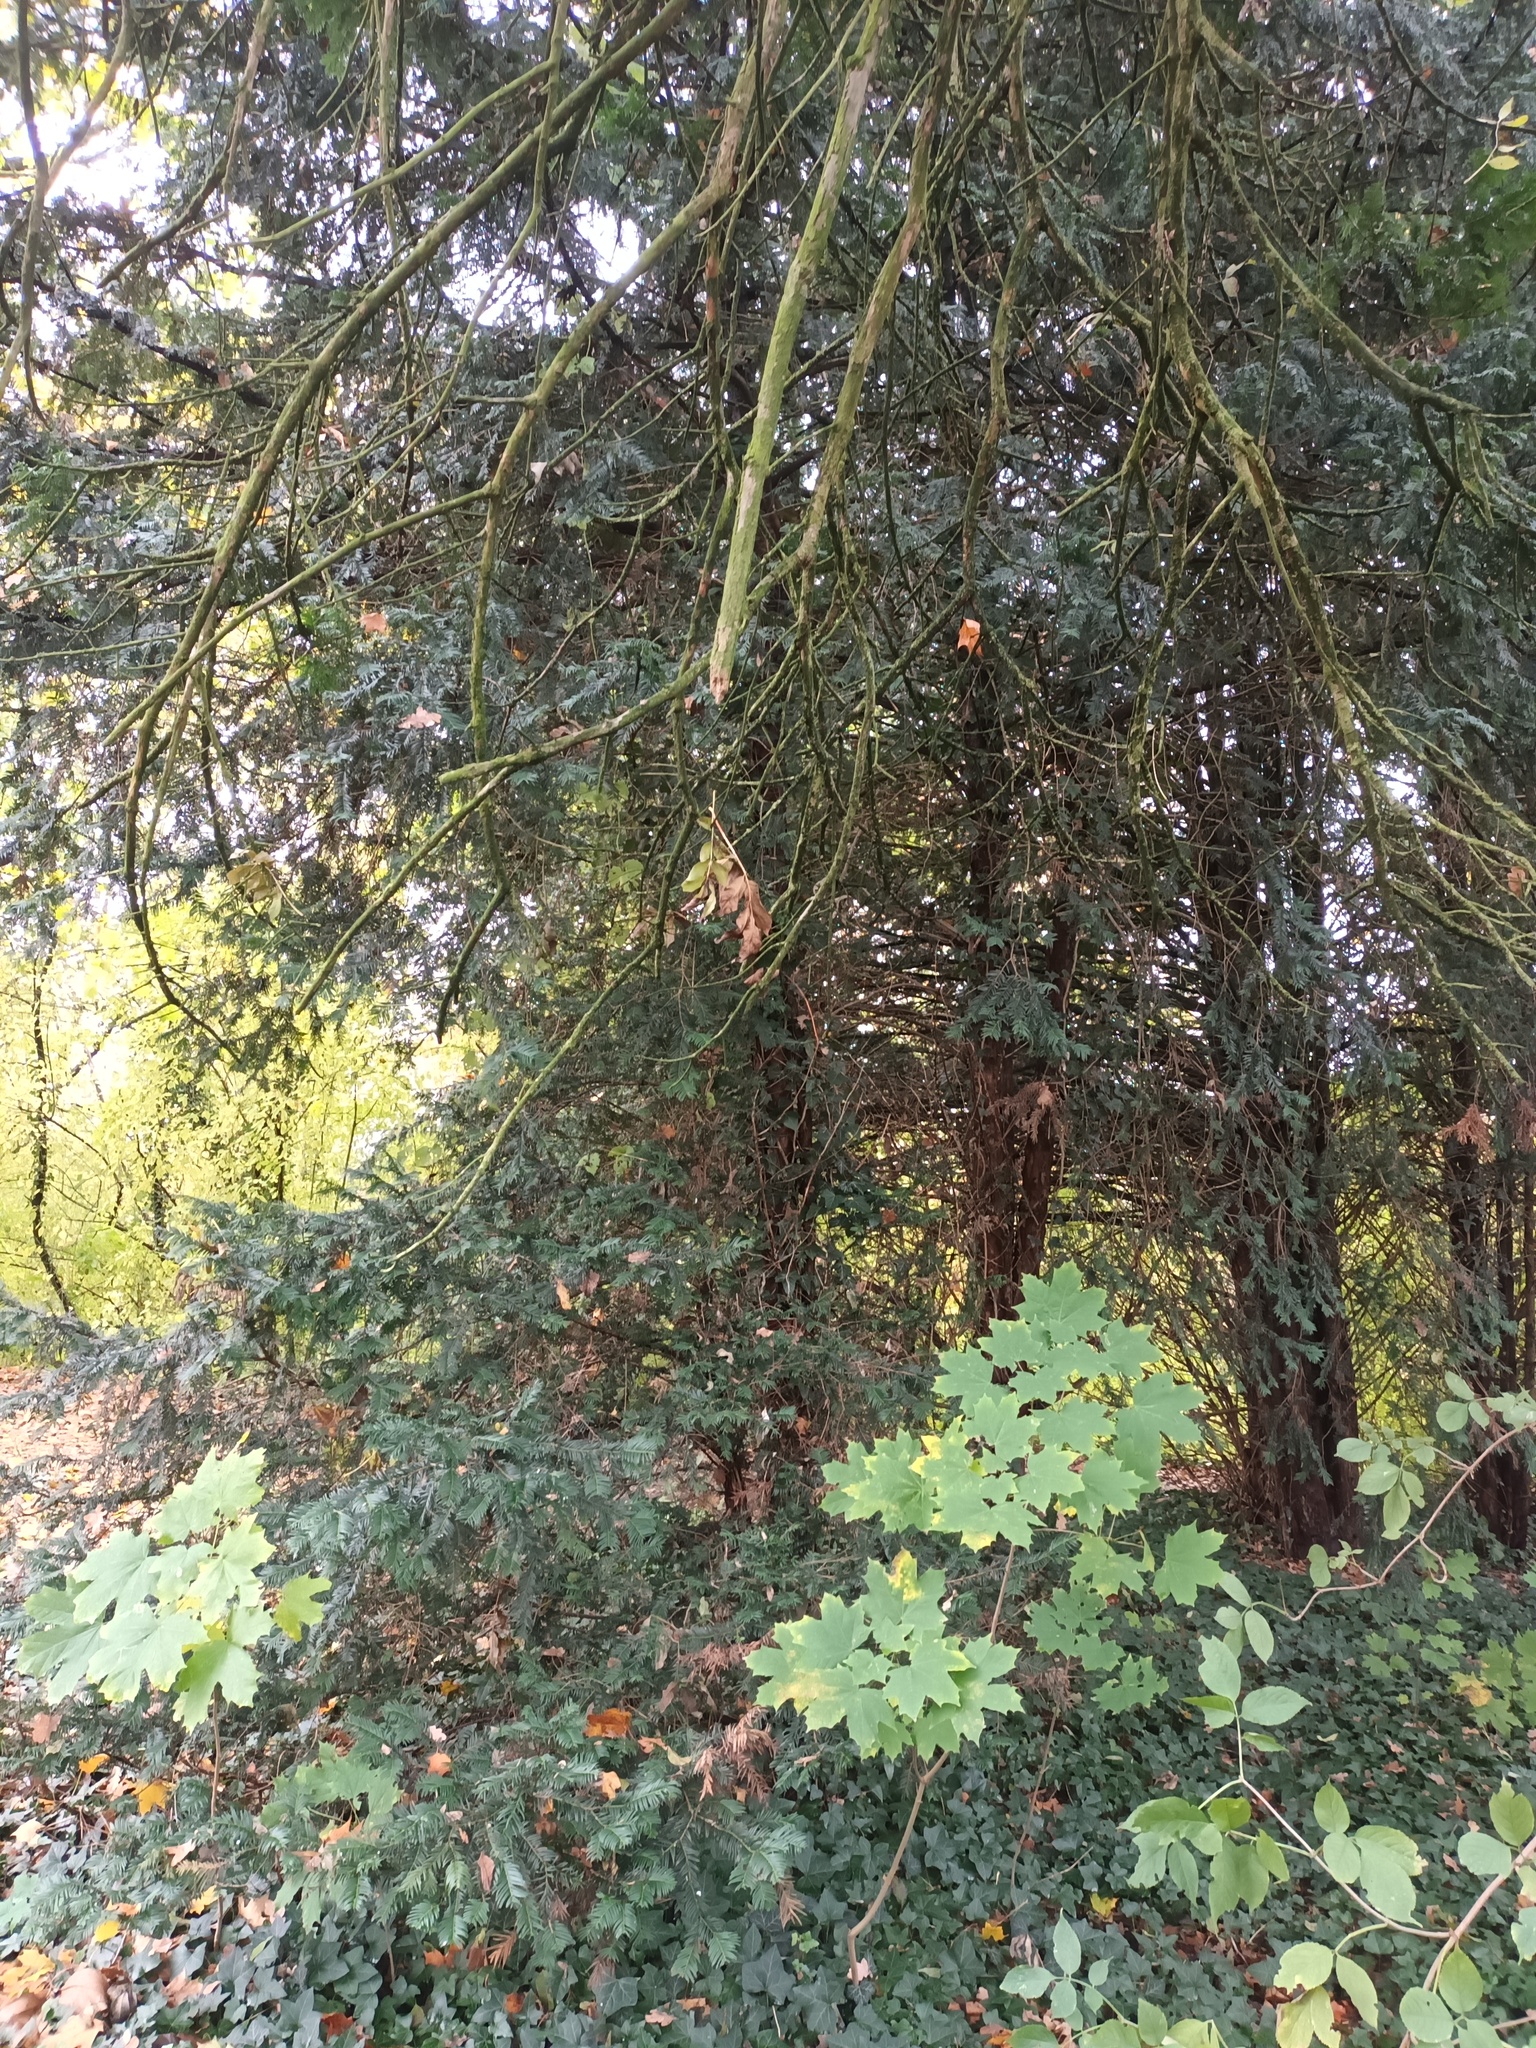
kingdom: Plantae
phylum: Tracheophyta
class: Pinopsida
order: Pinales
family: Taxaceae
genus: Taxus
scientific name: Taxus baccata
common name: Yew
